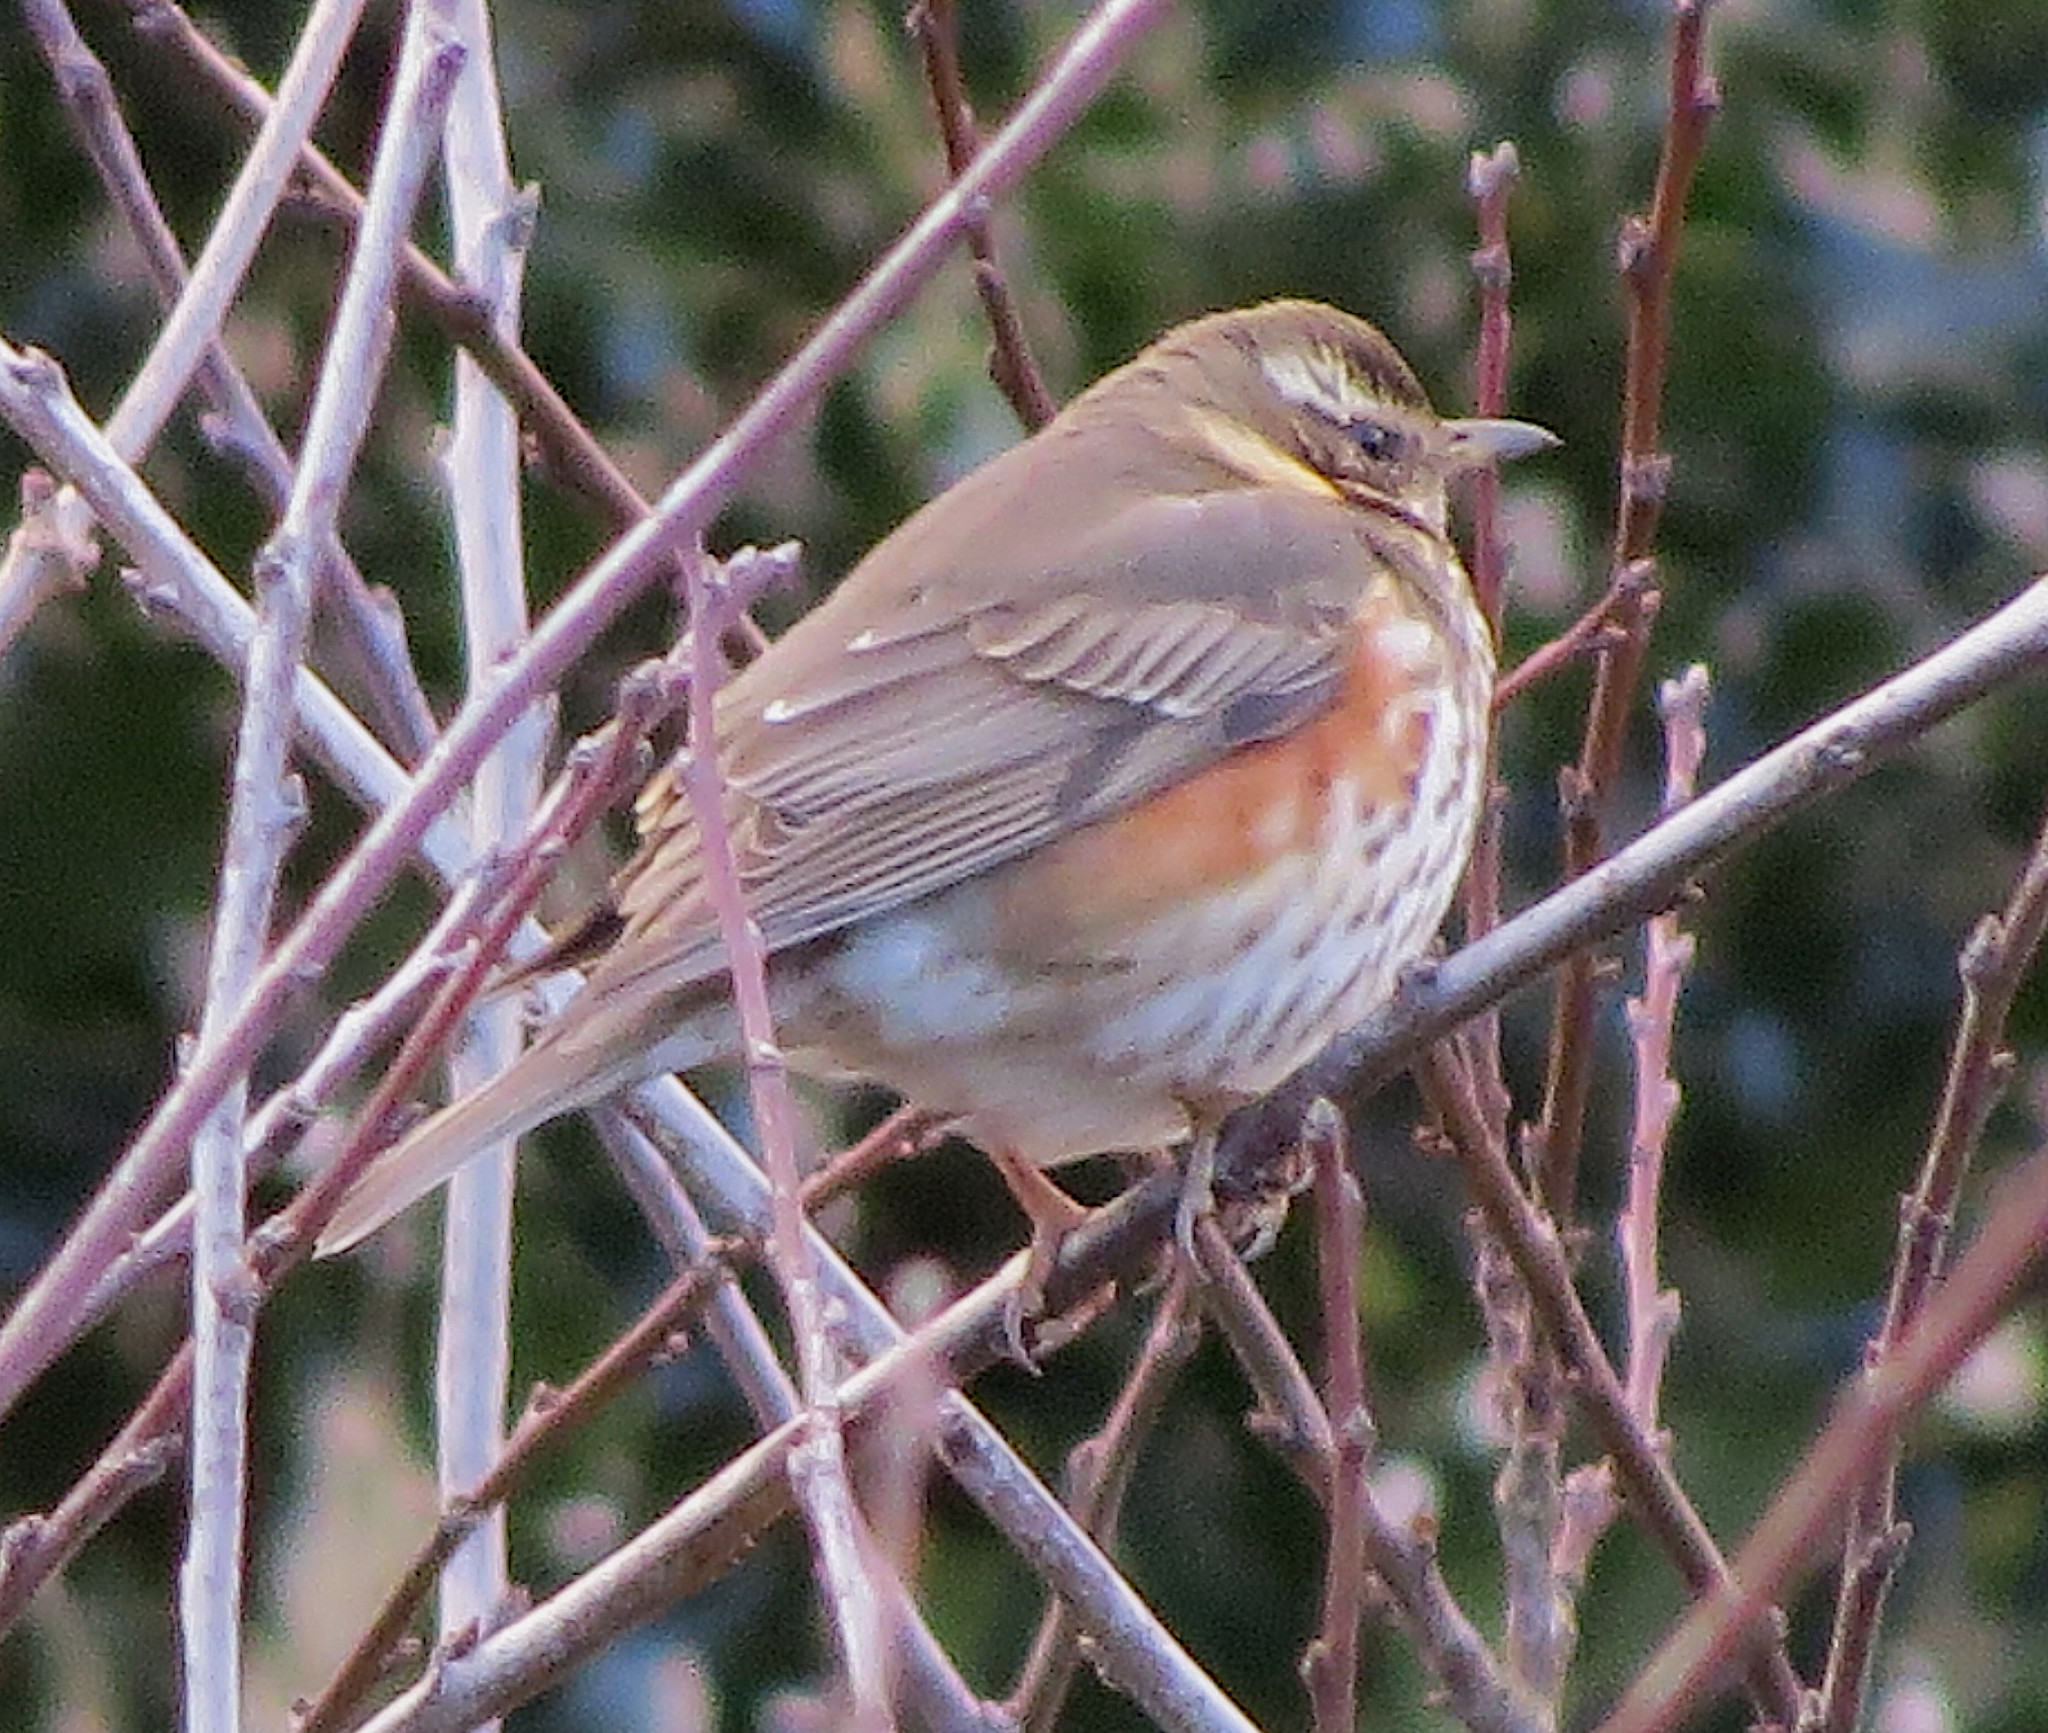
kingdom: Animalia
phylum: Chordata
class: Aves
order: Passeriformes
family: Turdidae
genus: Turdus
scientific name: Turdus iliacus
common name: Redwing
